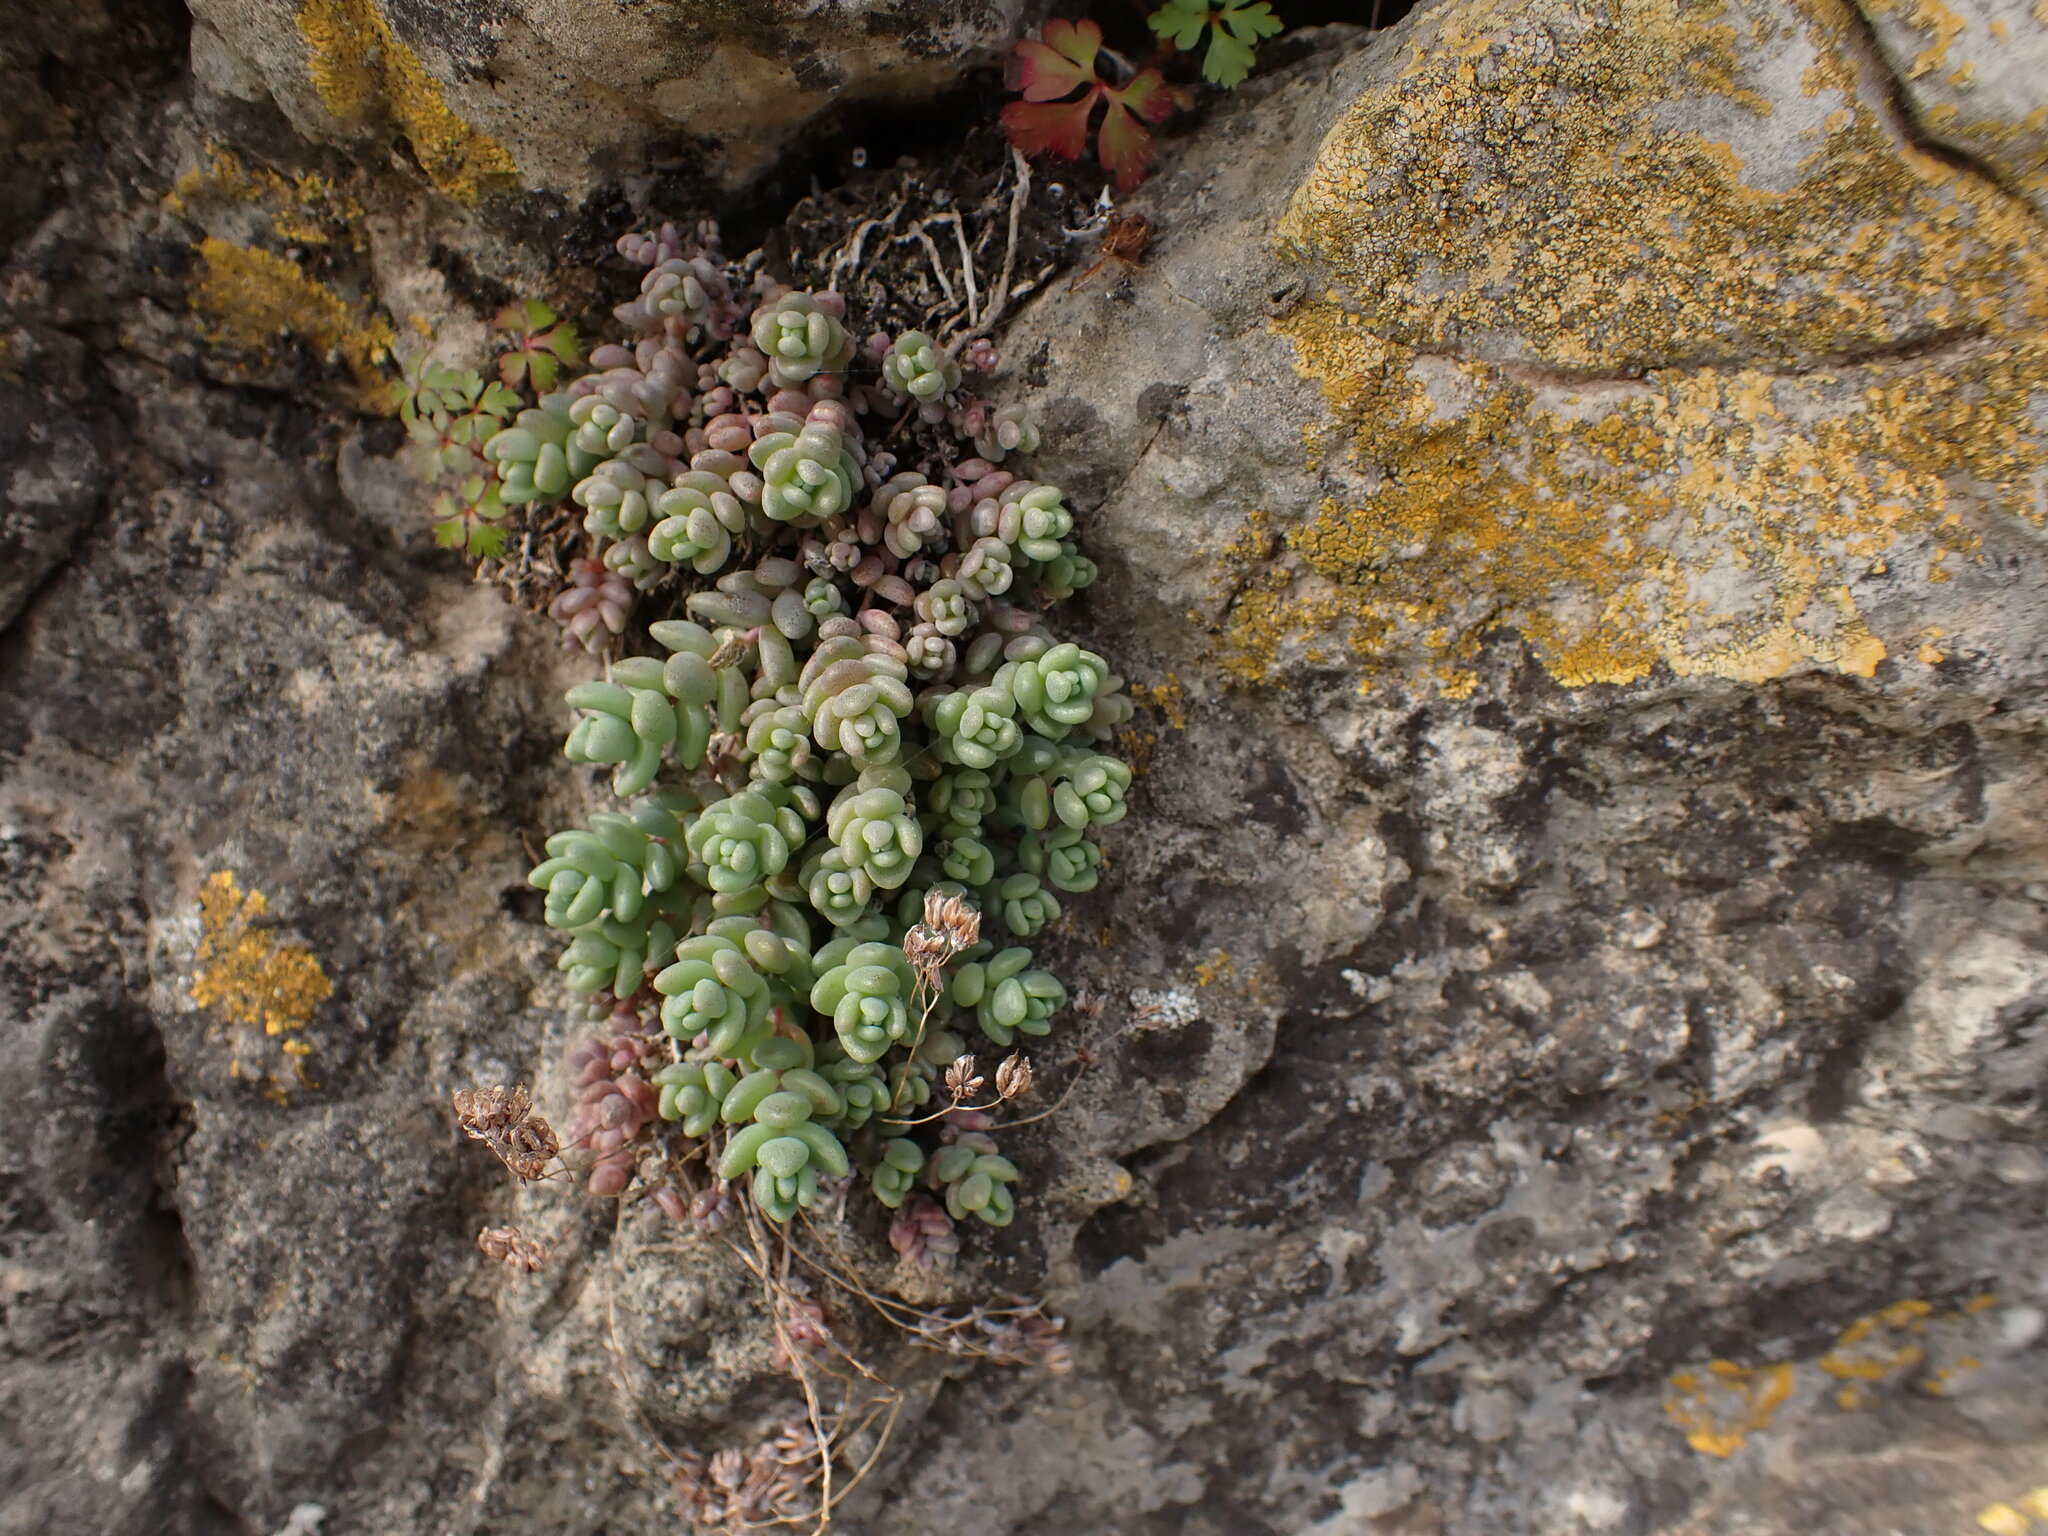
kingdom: Plantae
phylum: Tracheophyta
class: Magnoliopsida
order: Saxifragales
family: Crassulaceae
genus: Sedum
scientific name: Sedum dasyphyllum
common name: Thick-leaf stonecrop
